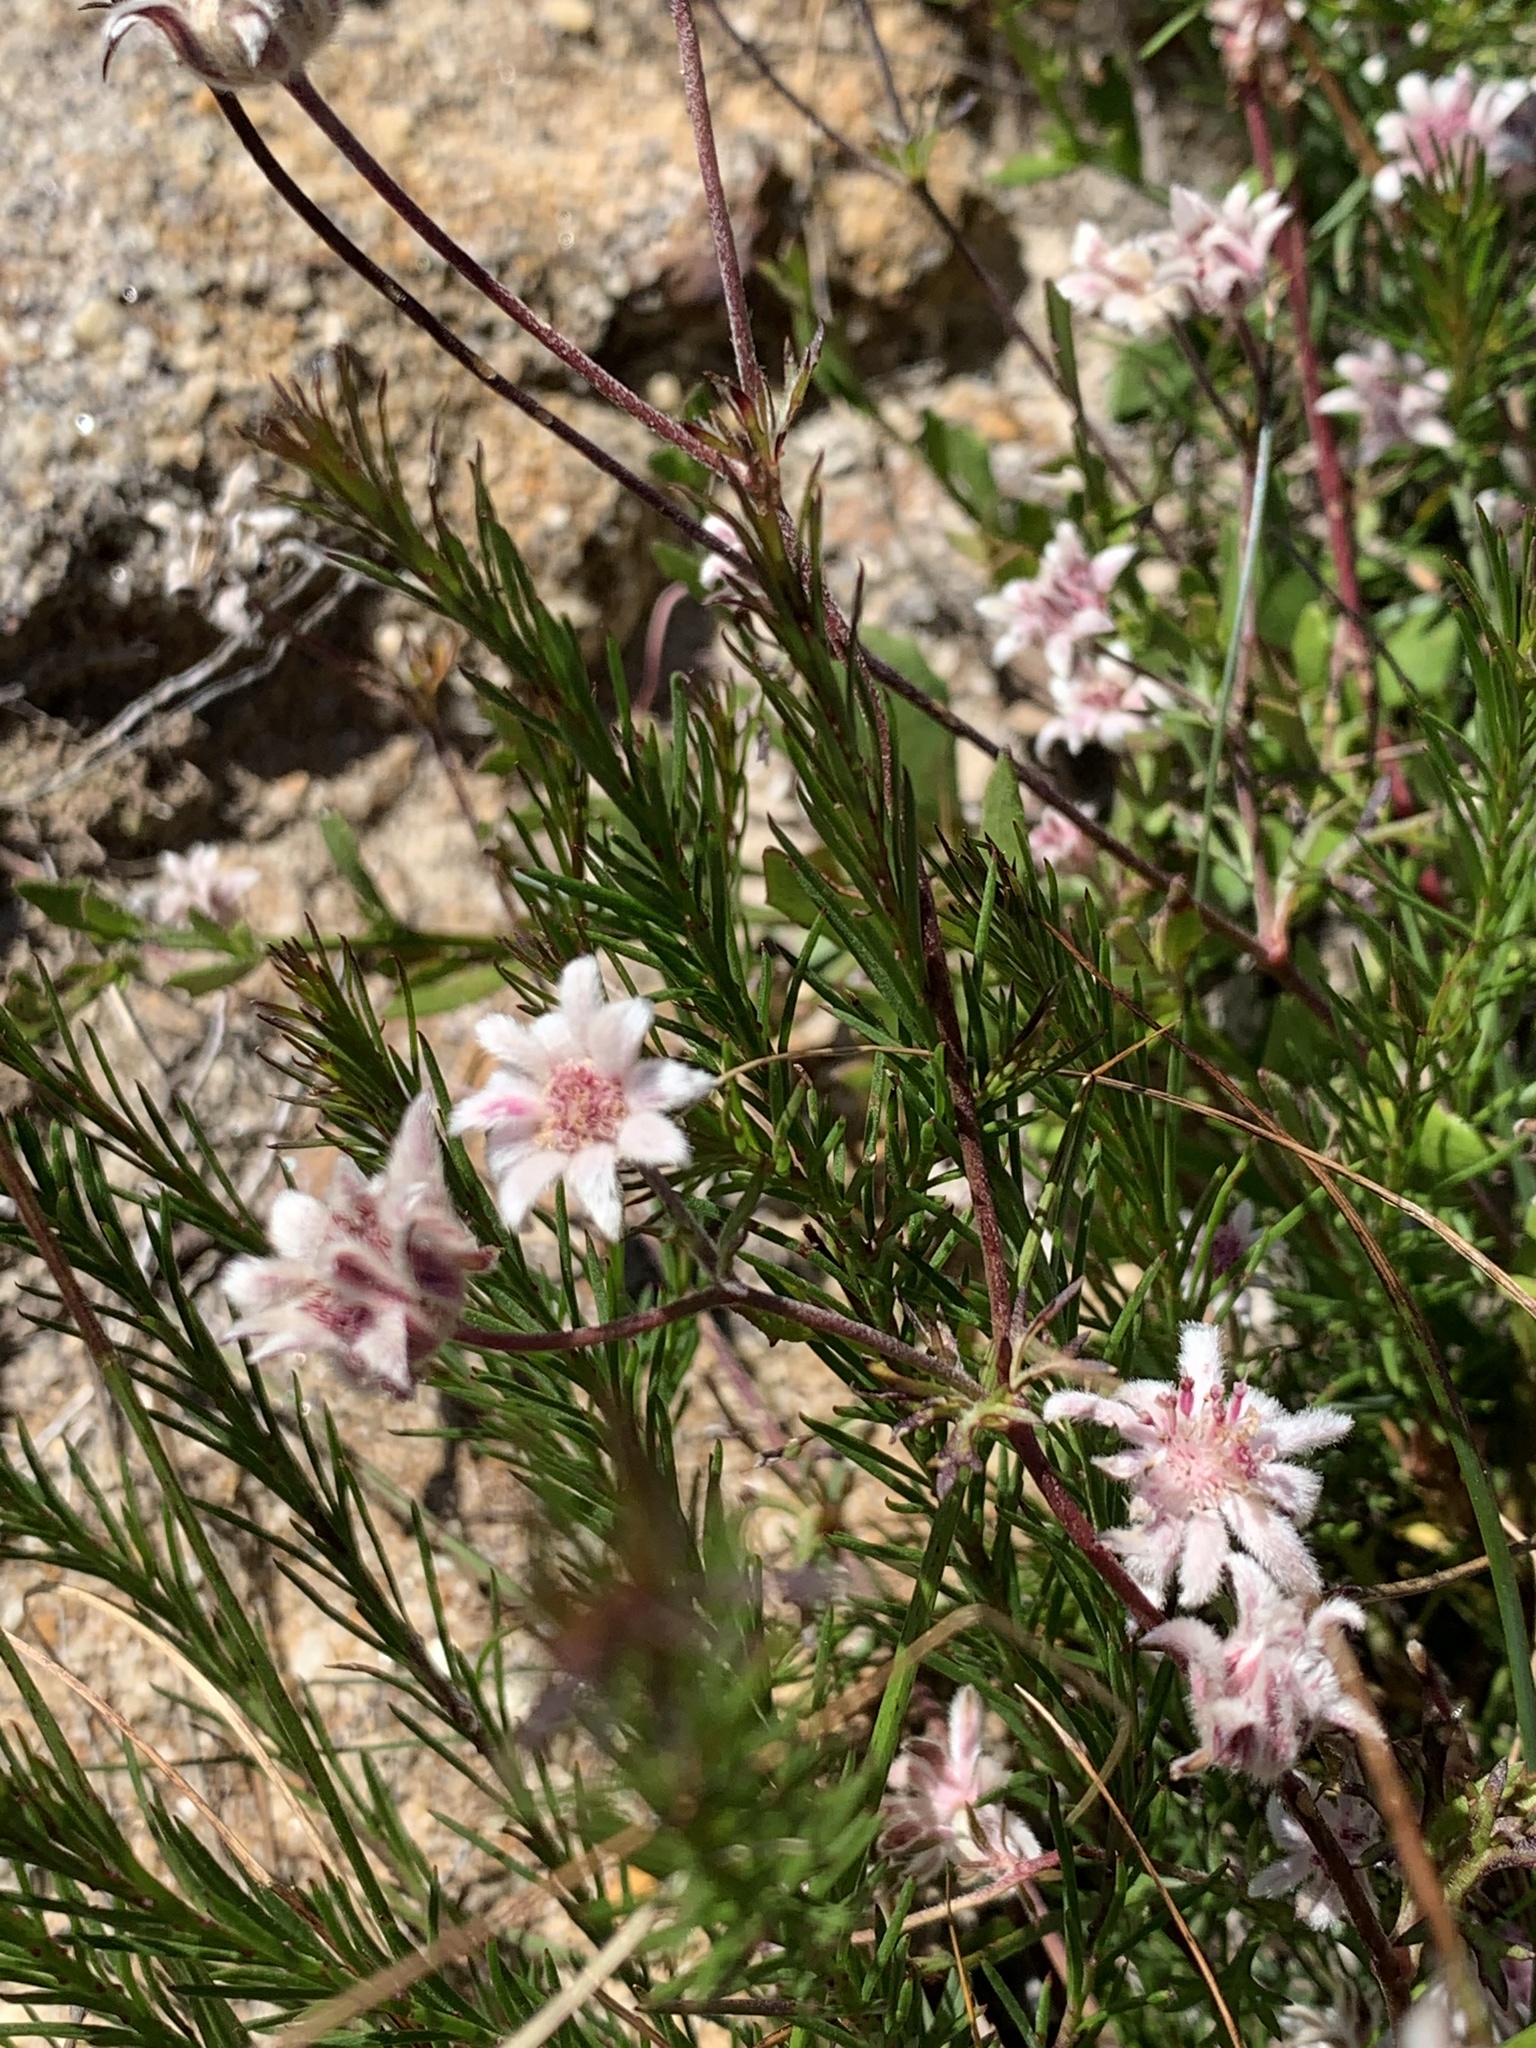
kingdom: Plantae
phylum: Tracheophyta
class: Magnoliopsida
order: Apiales
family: Apiaceae
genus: Actinotus
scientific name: Actinotus forsythii
